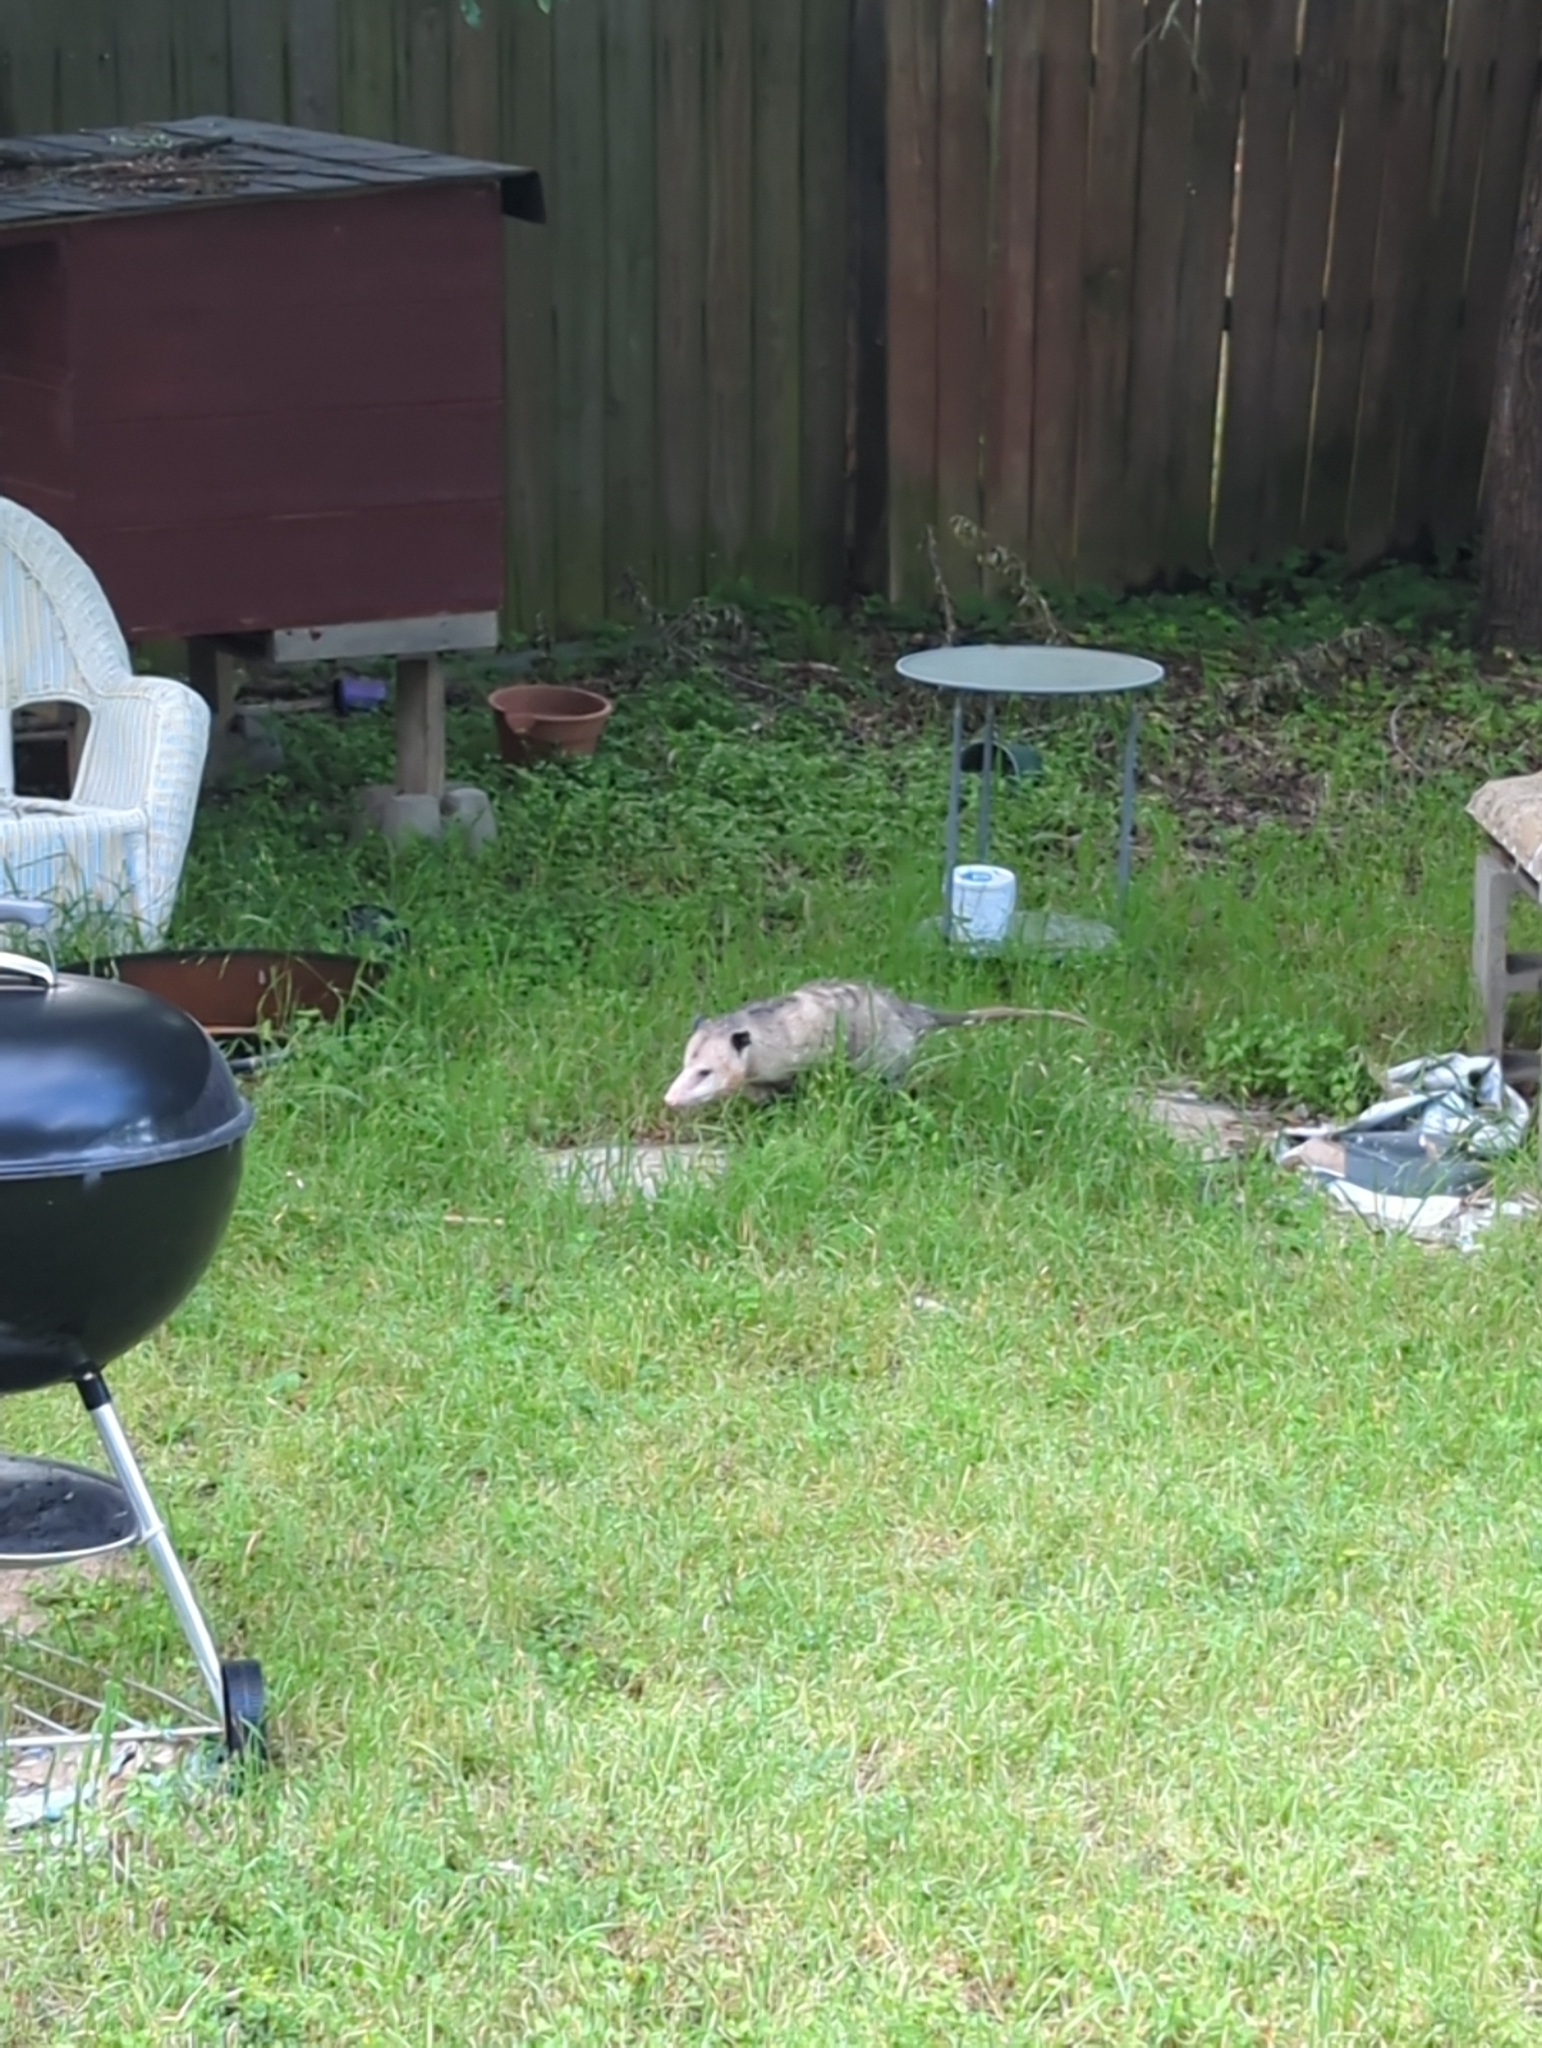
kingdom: Animalia
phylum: Chordata
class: Mammalia
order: Didelphimorphia
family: Didelphidae
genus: Didelphis
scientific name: Didelphis virginiana
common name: Virginia opossum
